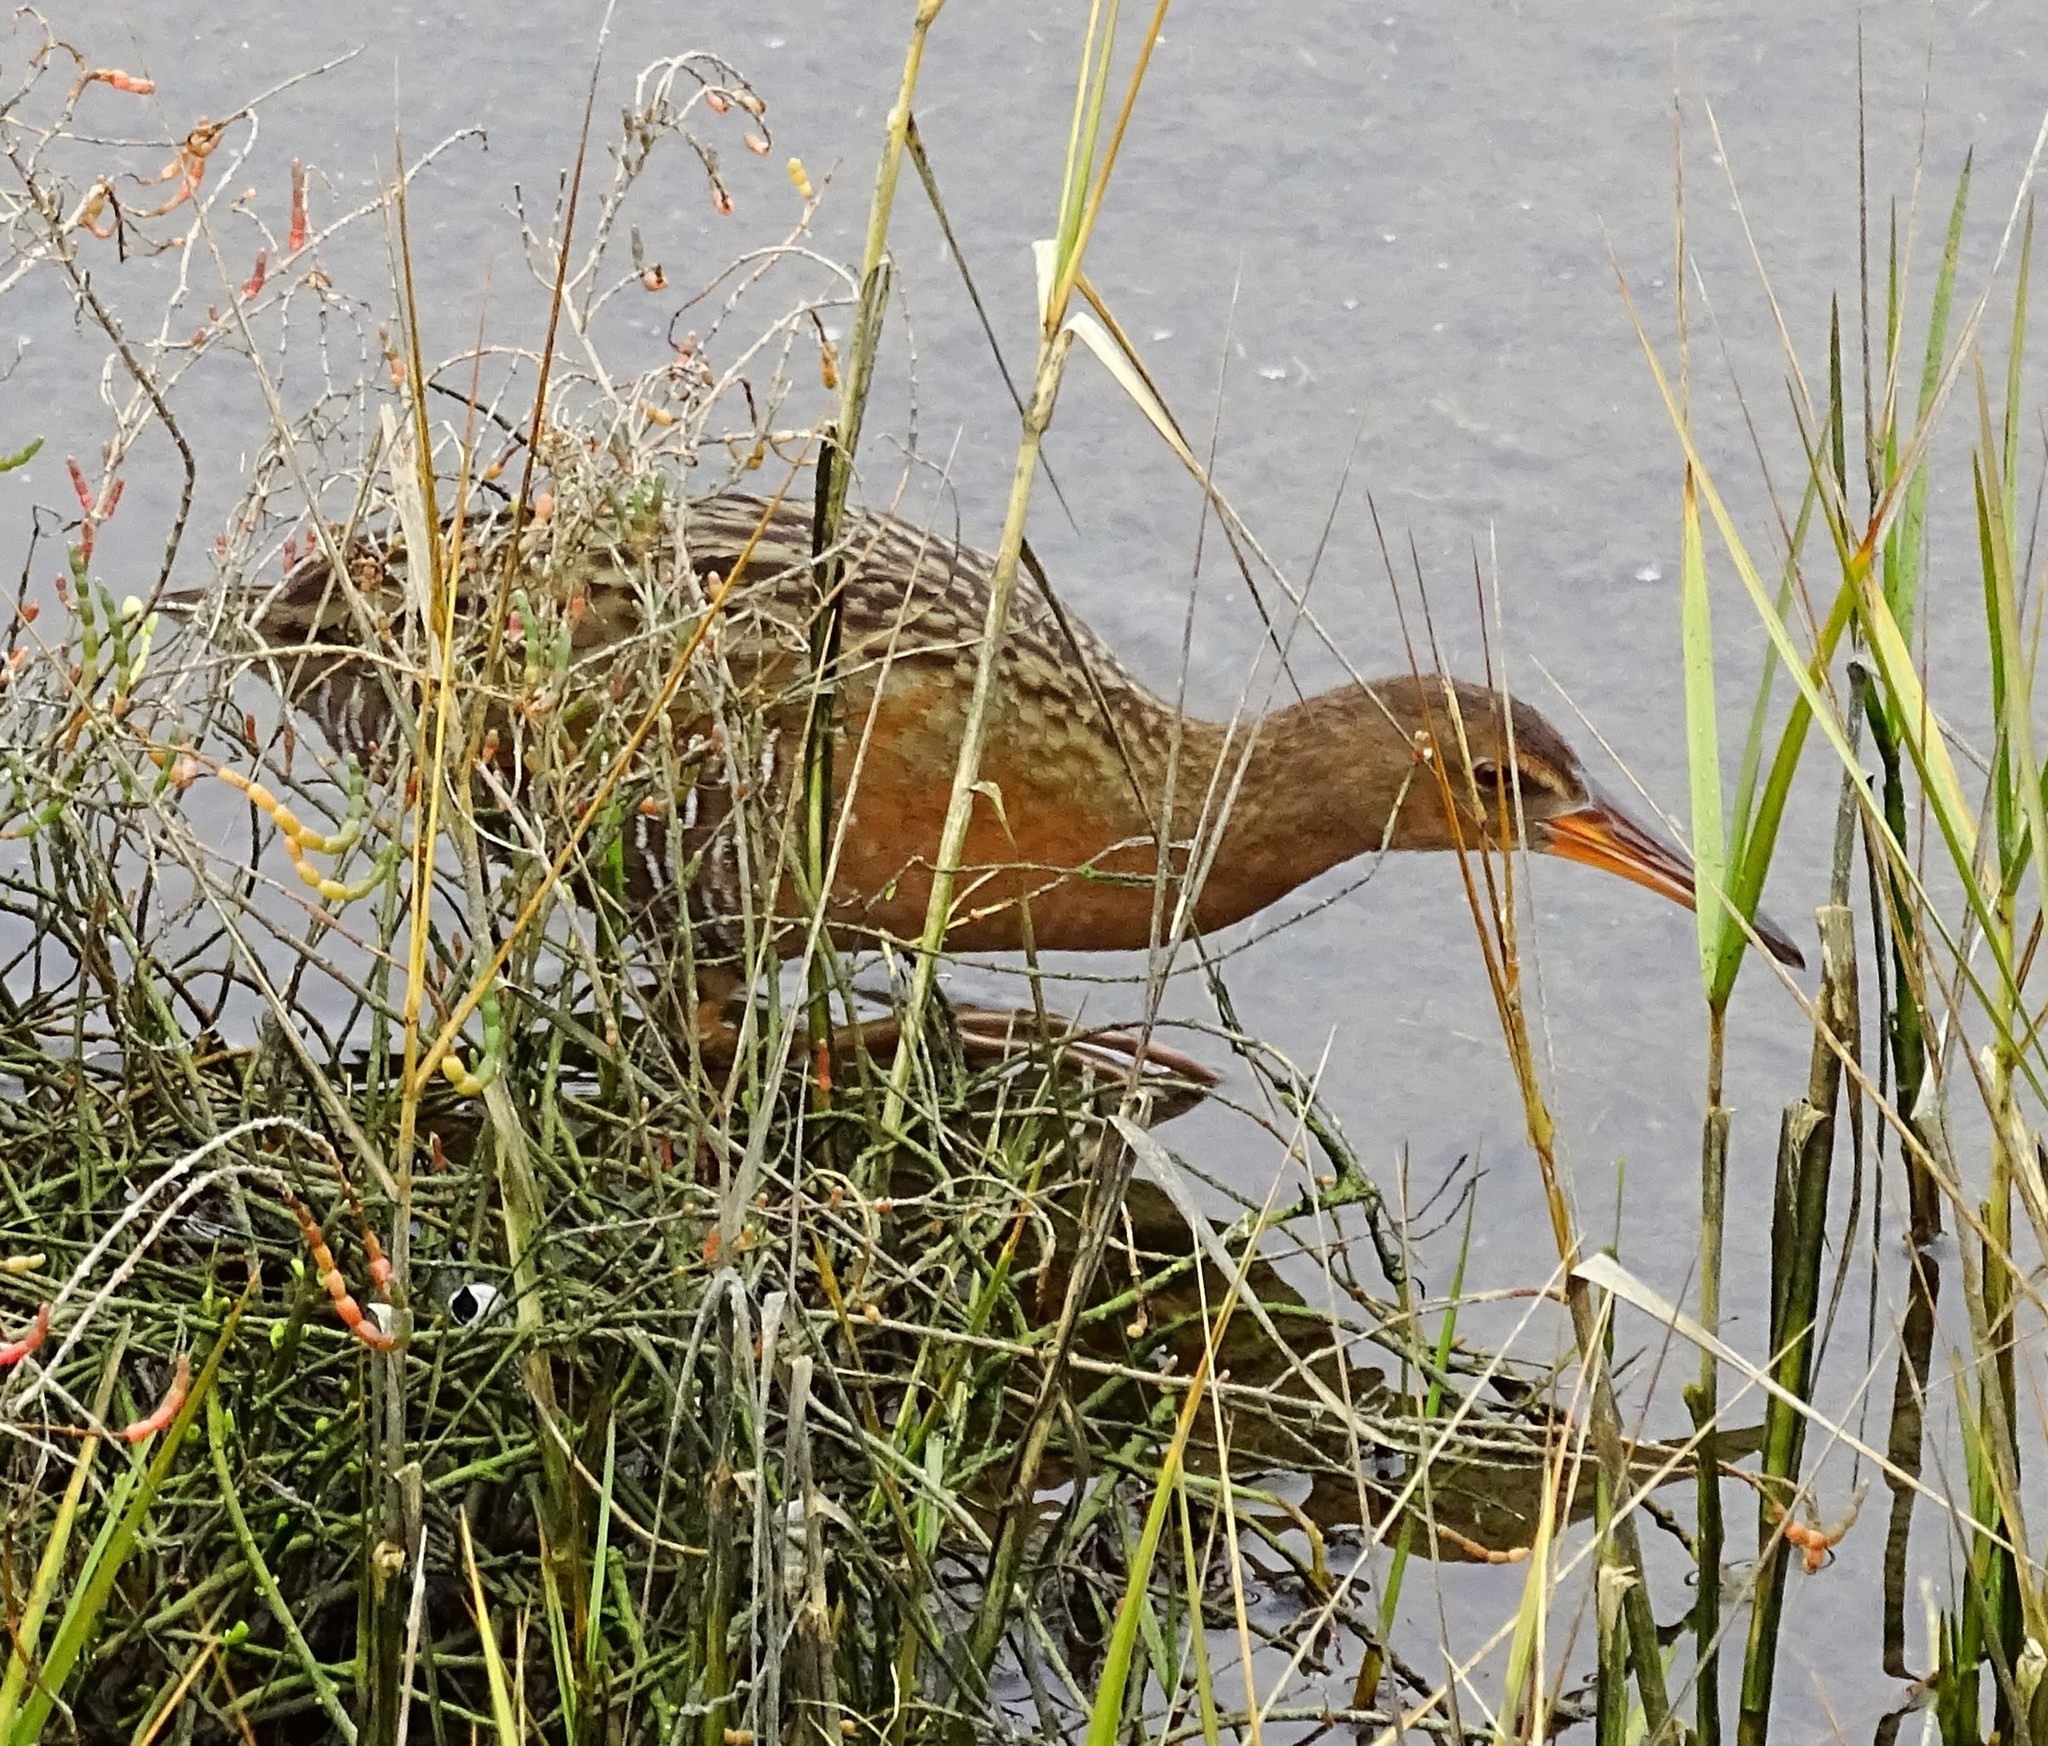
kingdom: Animalia
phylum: Chordata
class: Aves
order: Gruiformes
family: Rallidae
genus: Rallus
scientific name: Rallus obsoletus
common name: Ridgway's rail
